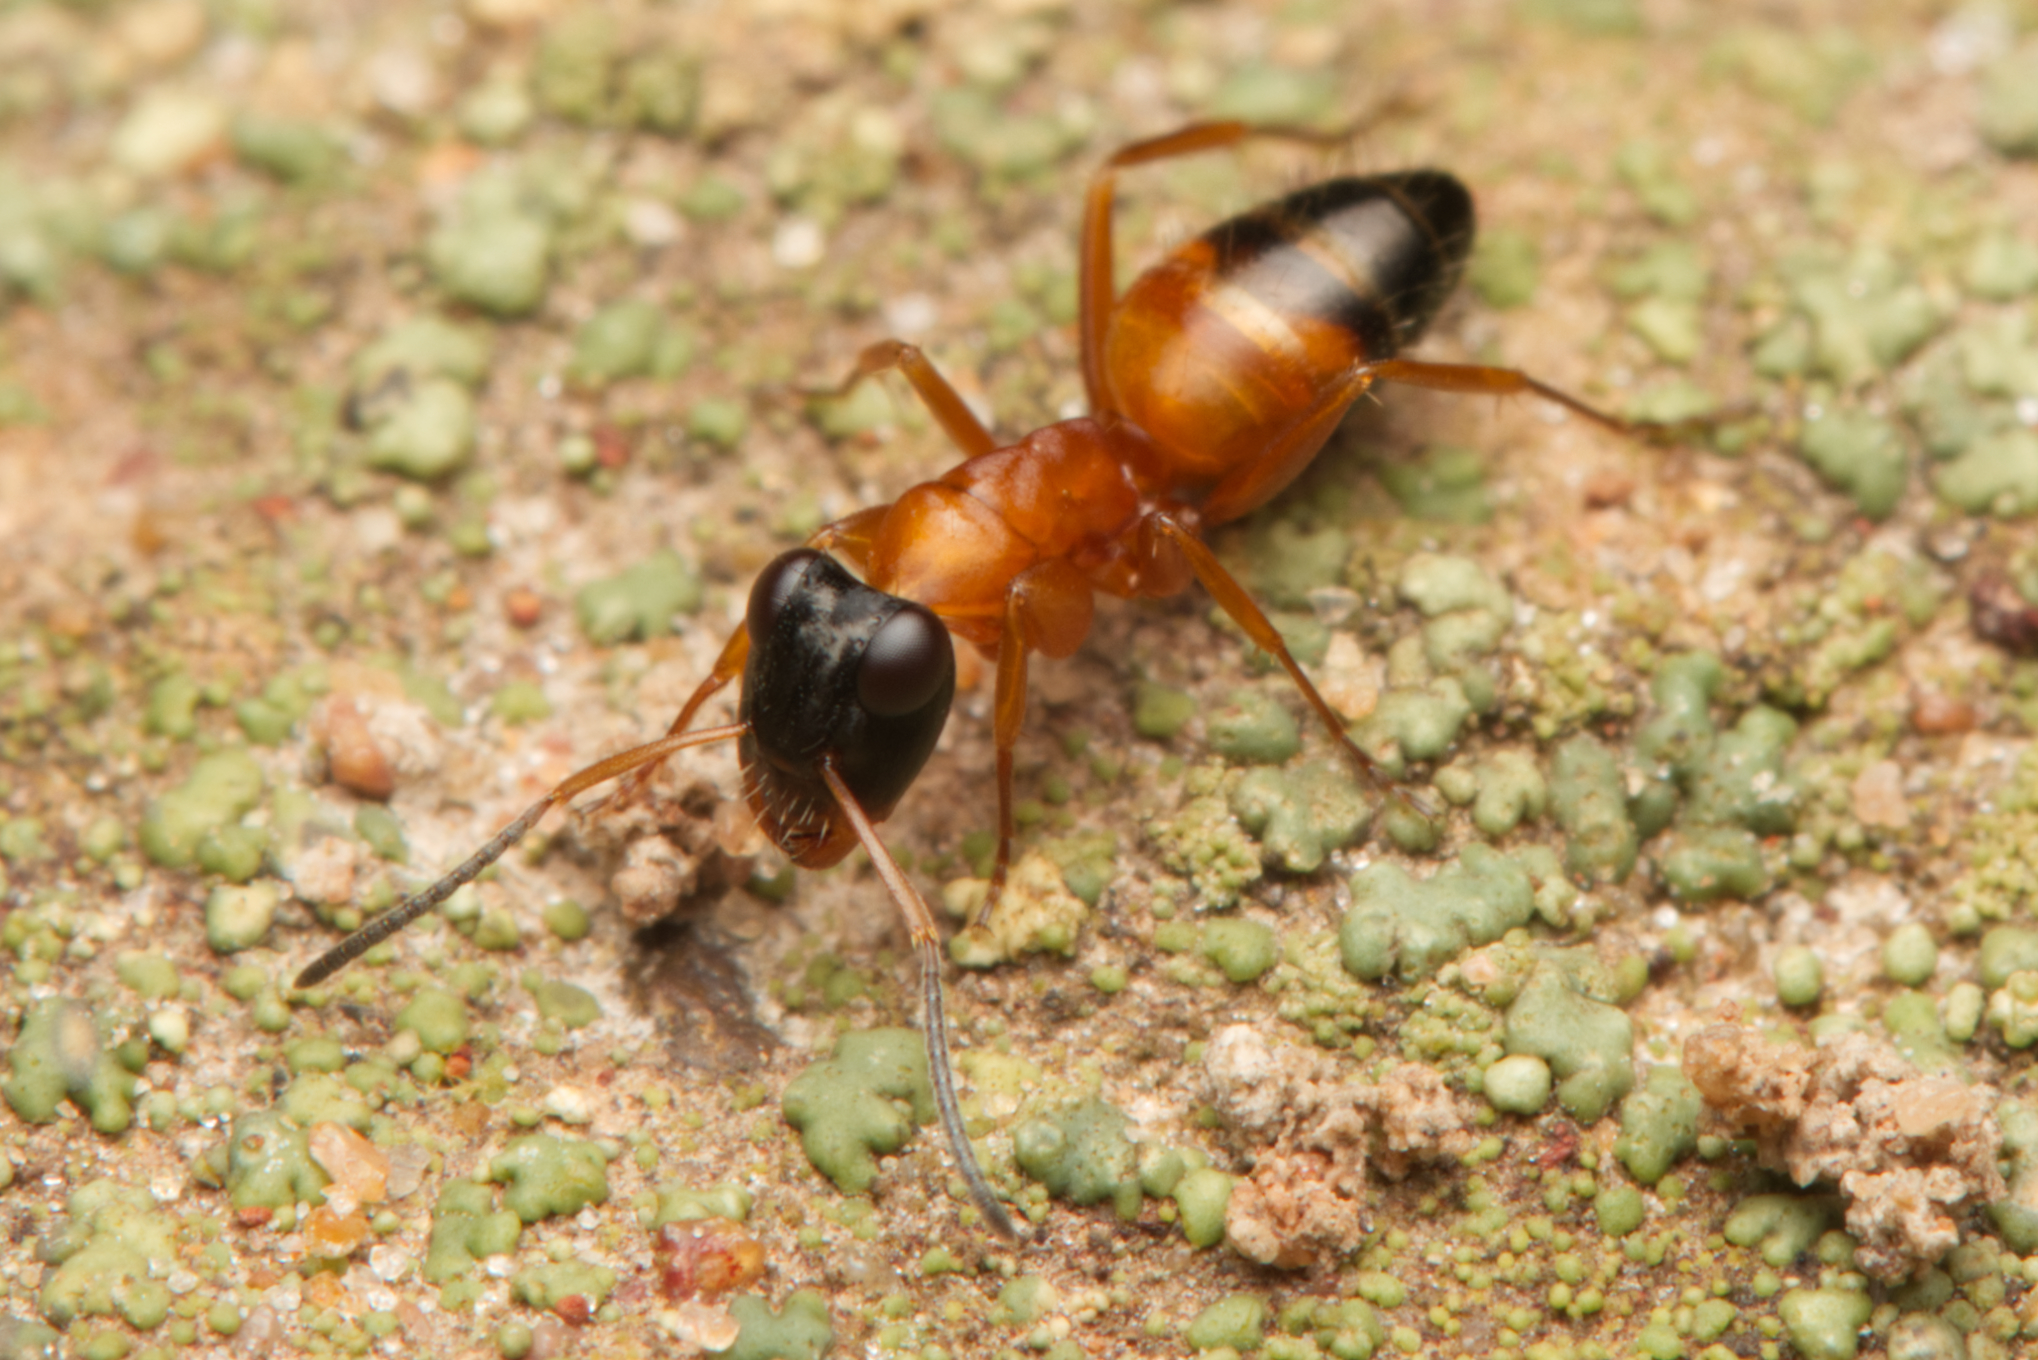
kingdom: Animalia
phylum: Arthropoda
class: Insecta
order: Hymenoptera
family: Formicidae
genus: Opisthopsis
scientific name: Opisthopsis rufithorax
